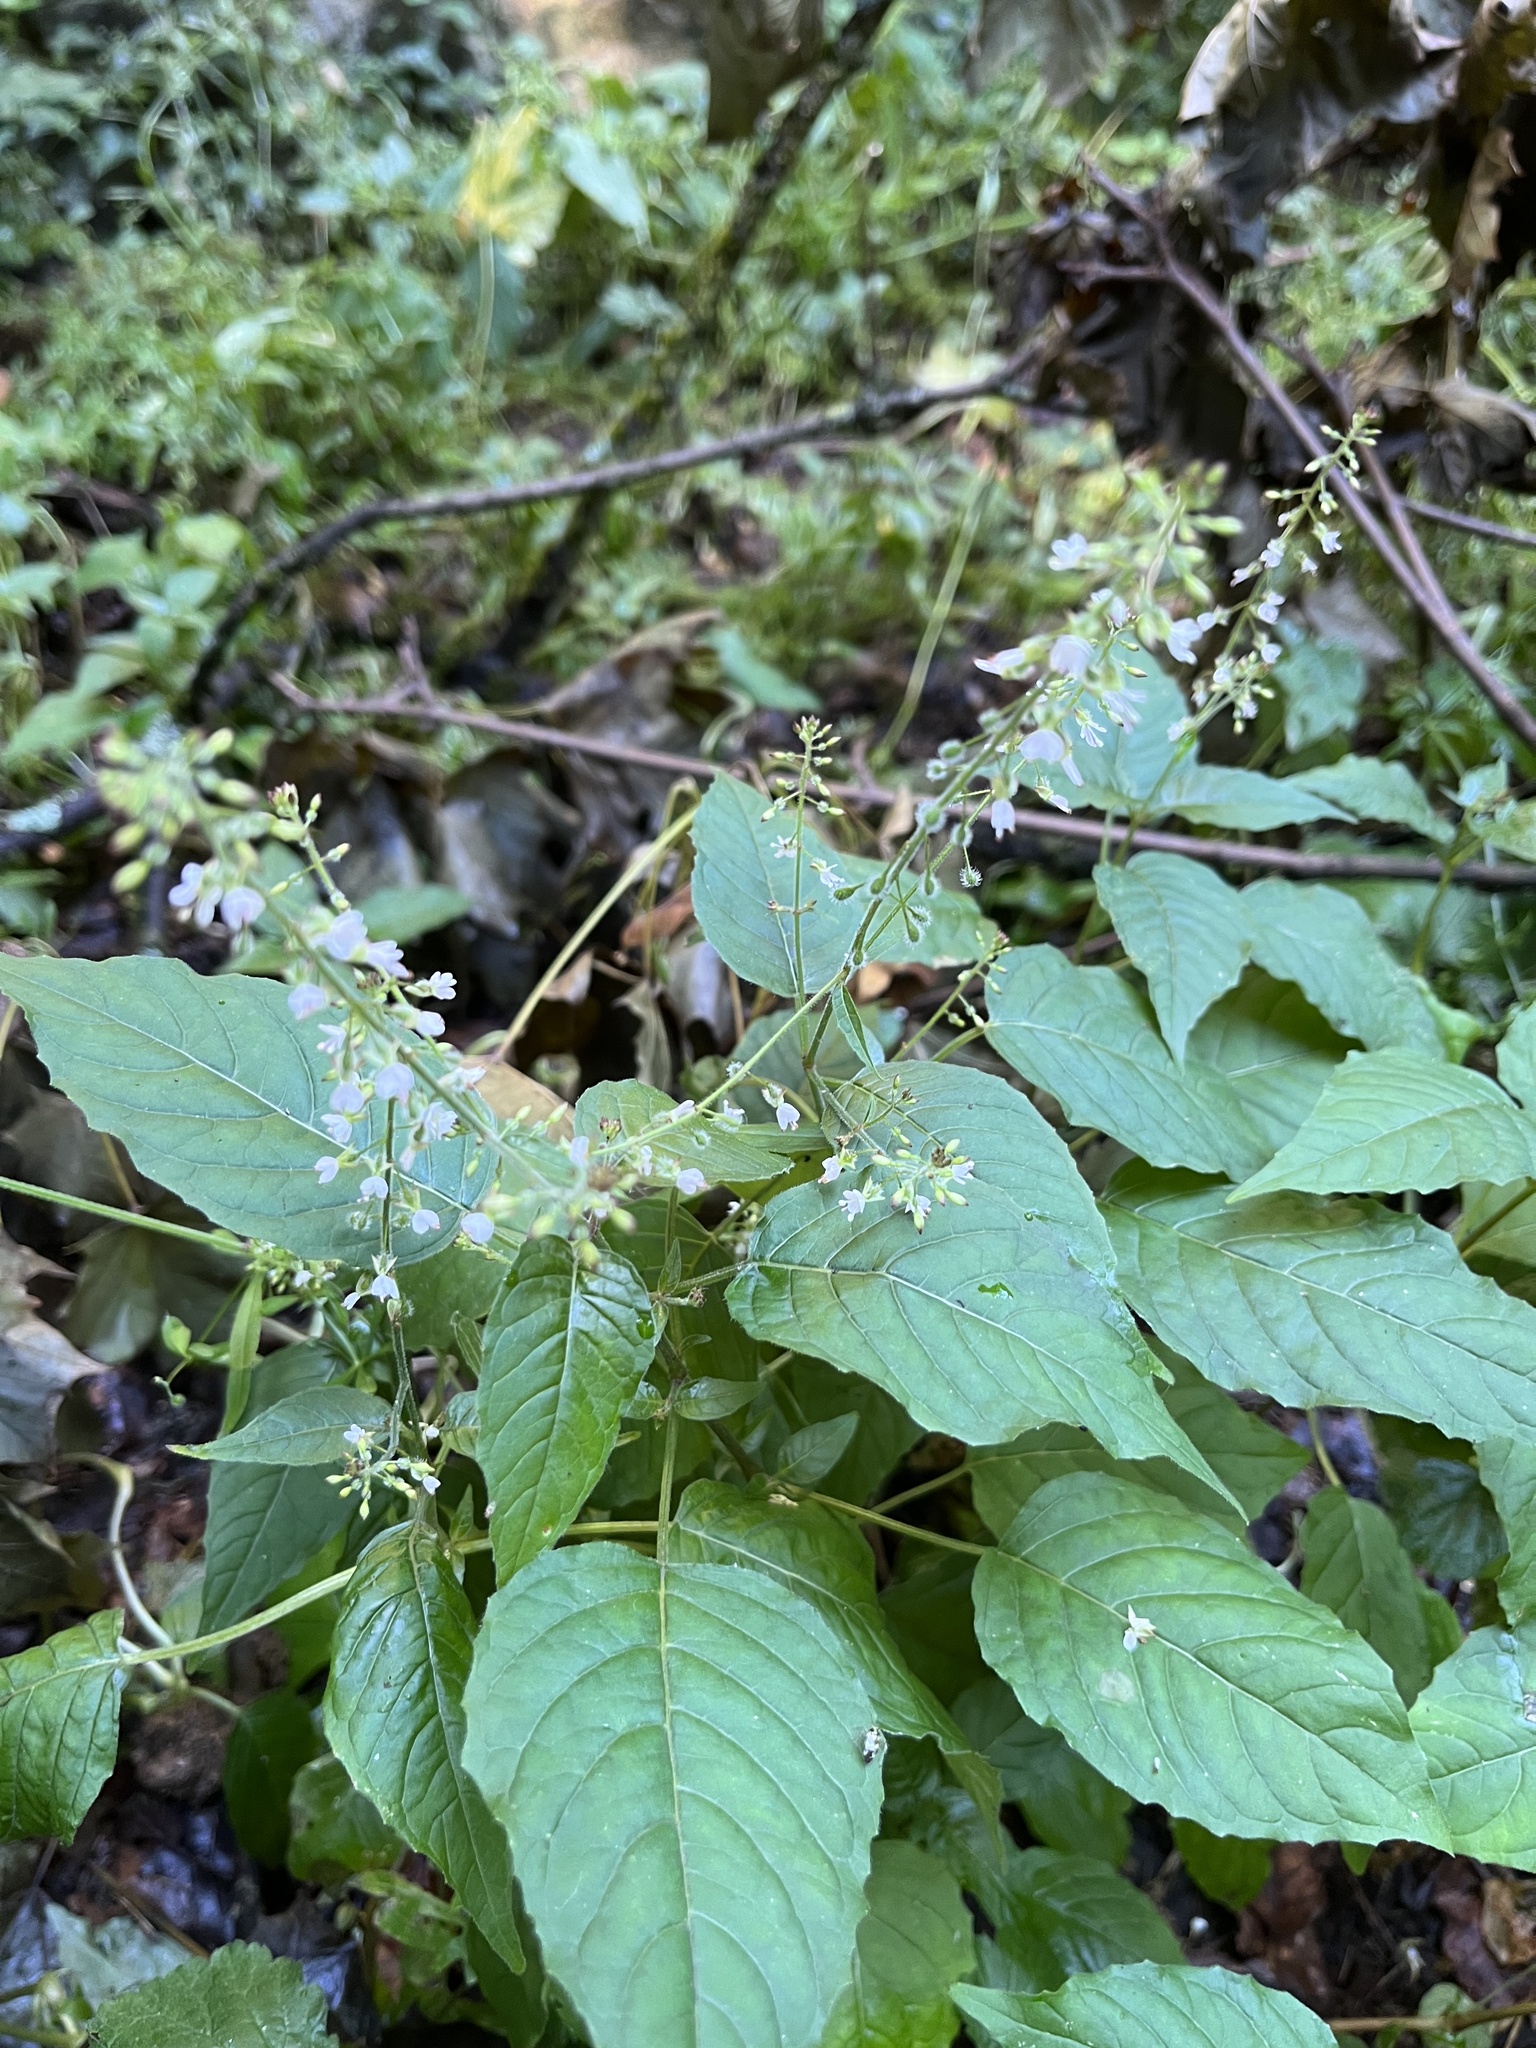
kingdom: Plantae
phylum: Tracheophyta
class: Magnoliopsida
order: Myrtales
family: Onagraceae
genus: Circaea
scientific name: Circaea lutetiana
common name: Enchanter's-nightshade
